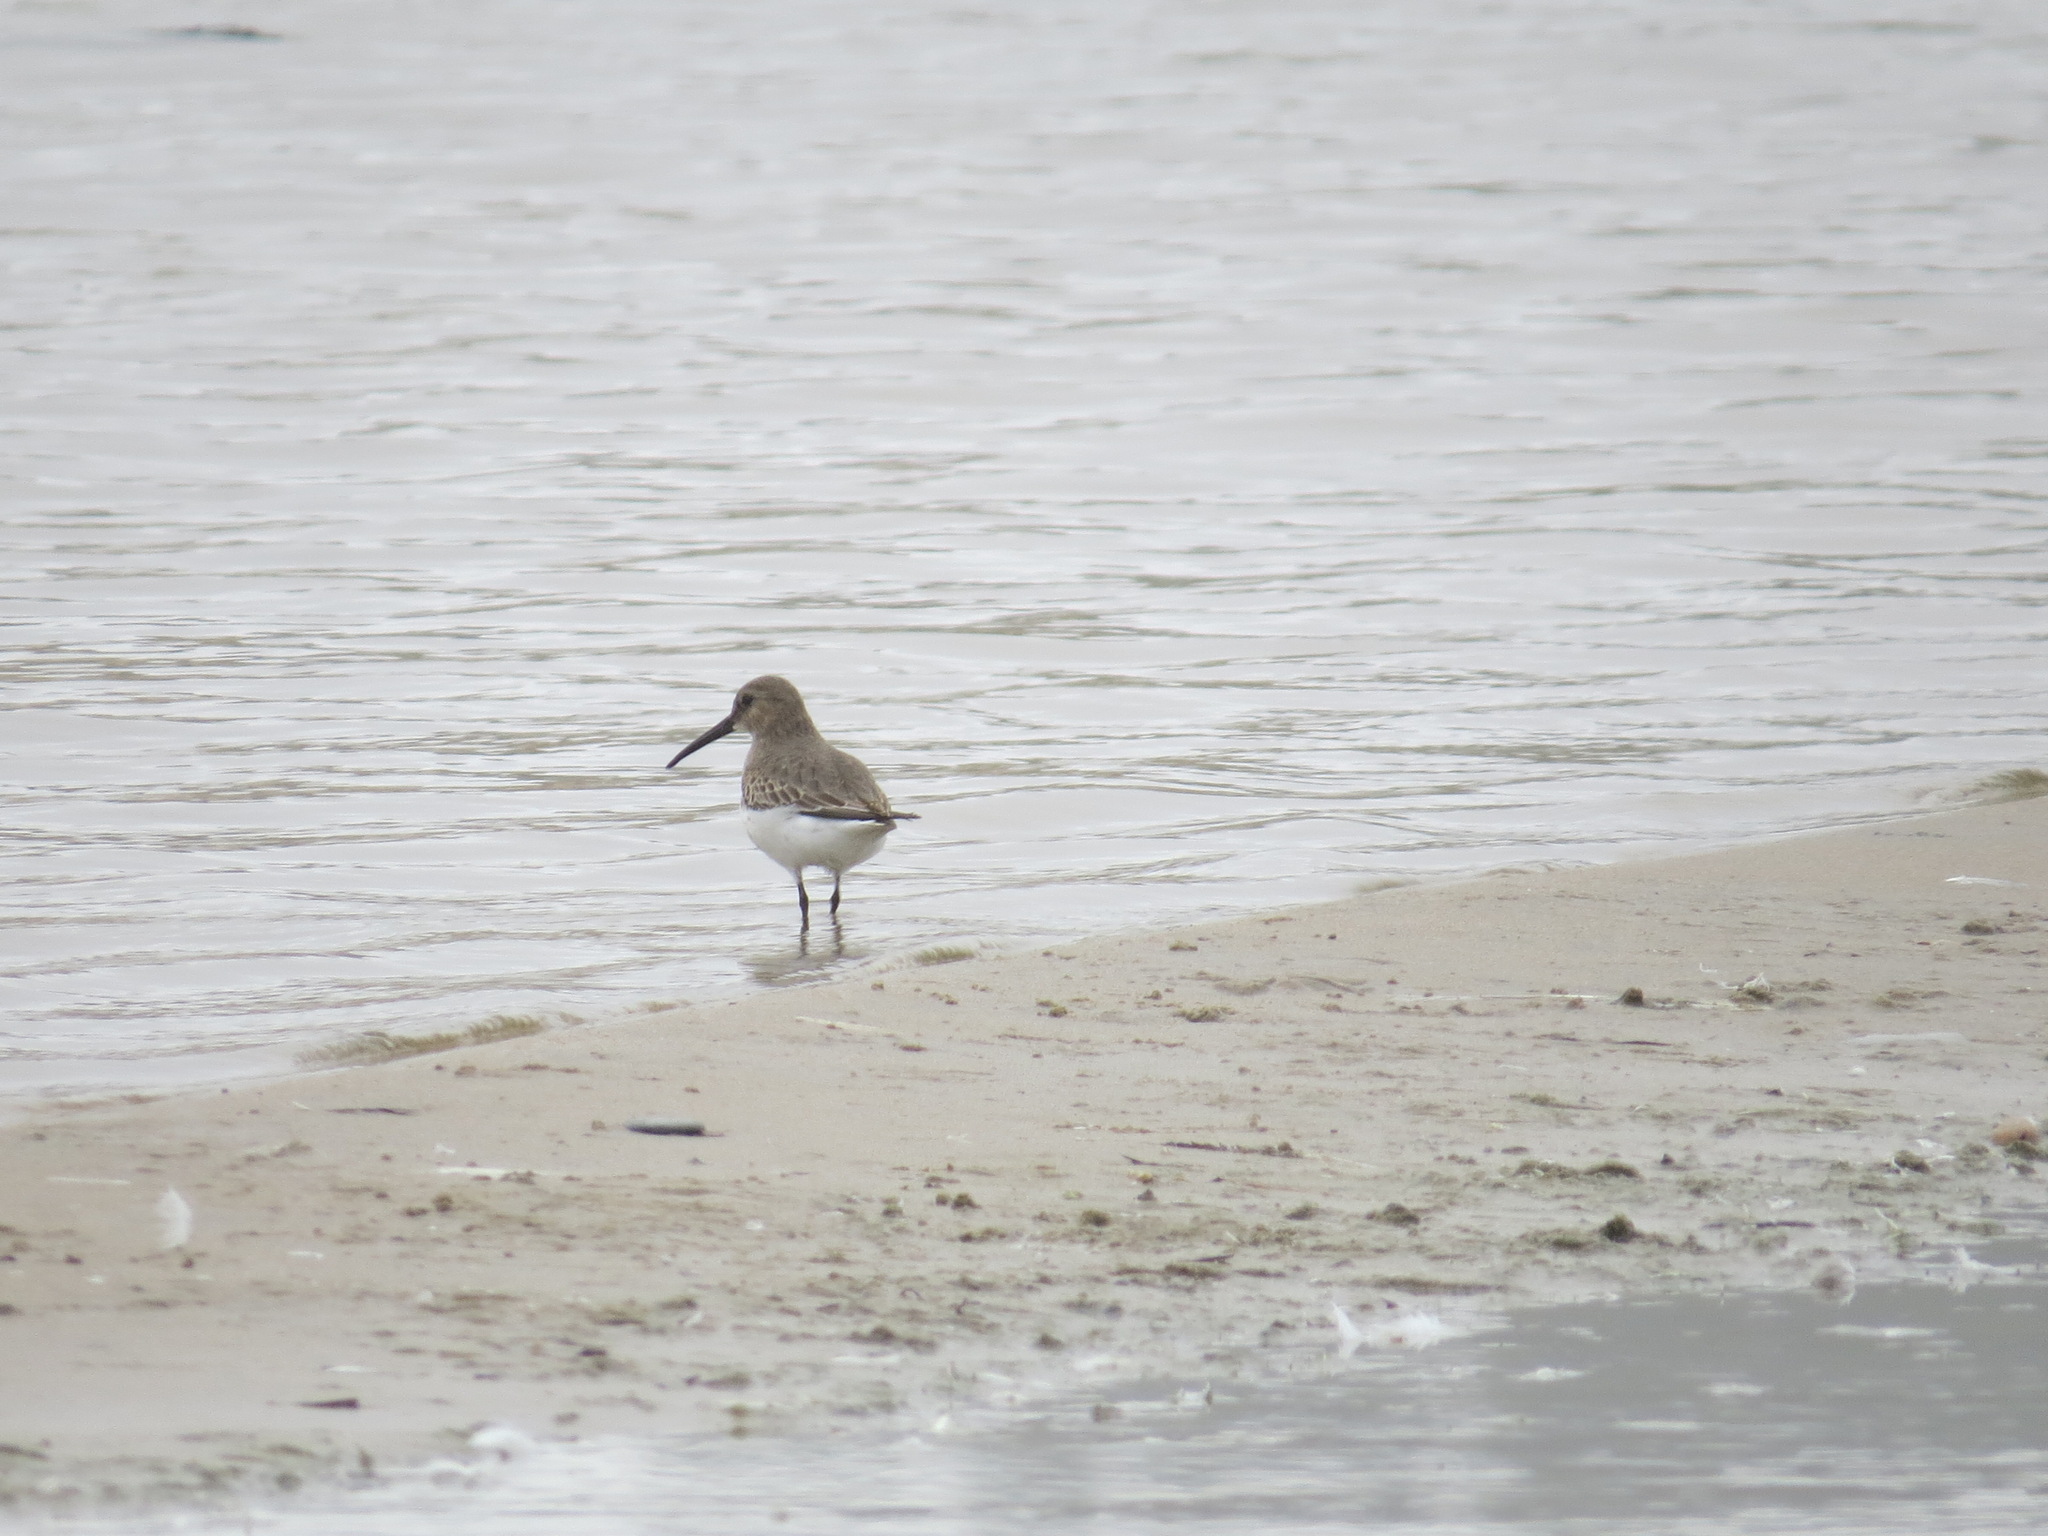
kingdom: Animalia
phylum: Chordata
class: Aves
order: Charadriiformes
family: Scolopacidae
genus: Calidris
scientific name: Calidris alpina
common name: Dunlin
